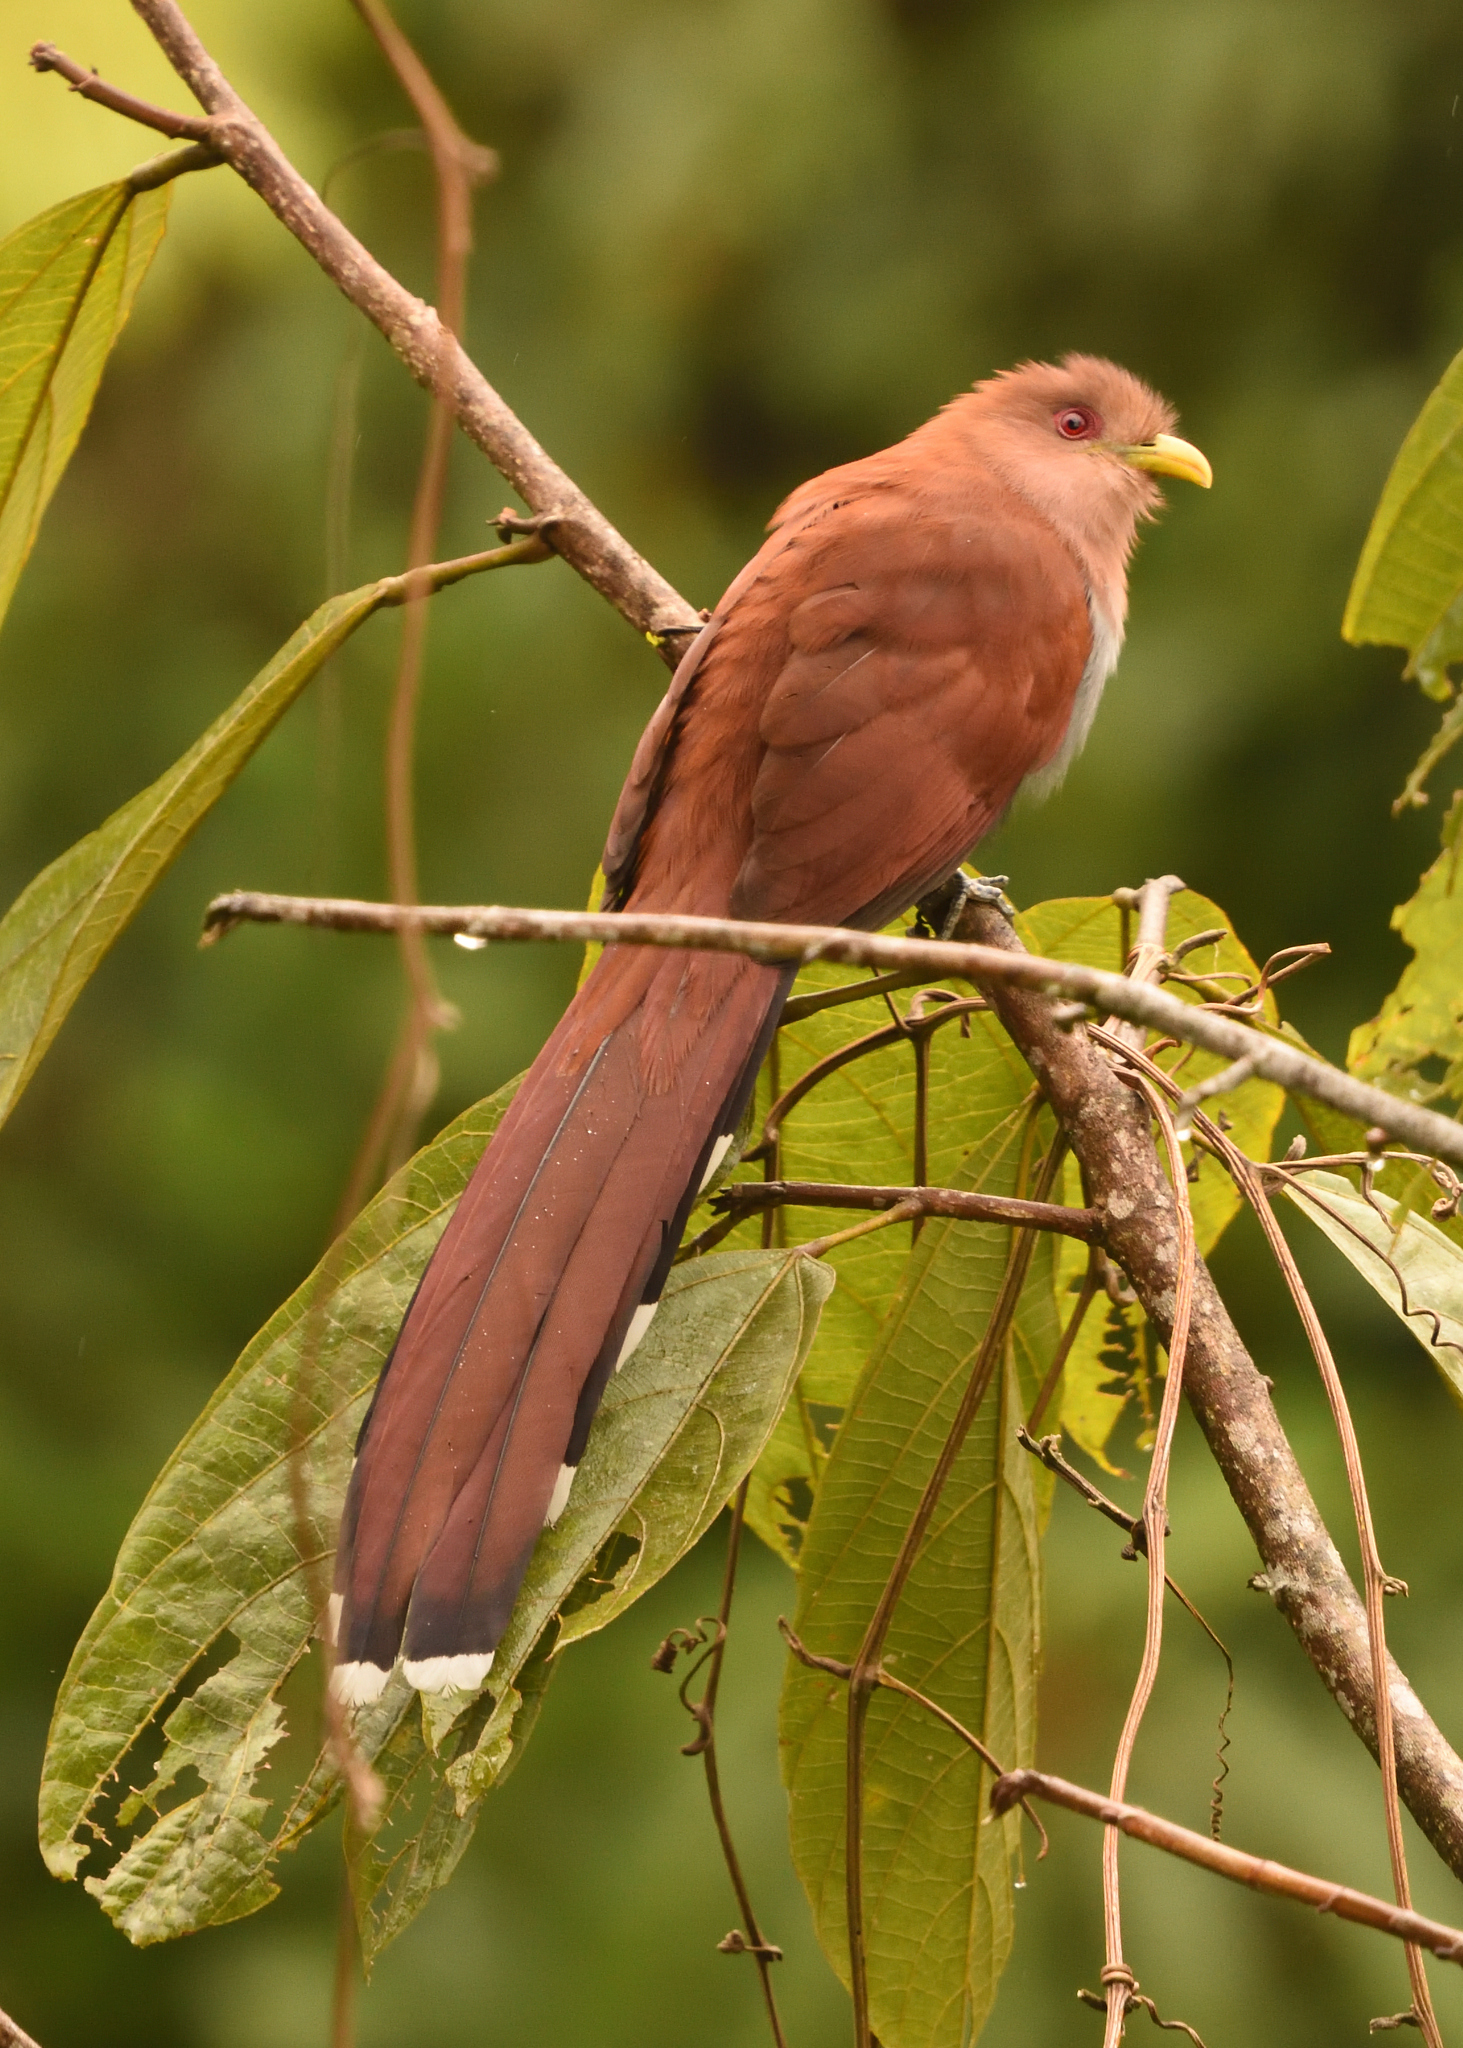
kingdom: Animalia
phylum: Chordata
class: Aves
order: Cuculiformes
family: Cuculidae
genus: Piaya
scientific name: Piaya cayana
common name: Squirrel cuckoo
